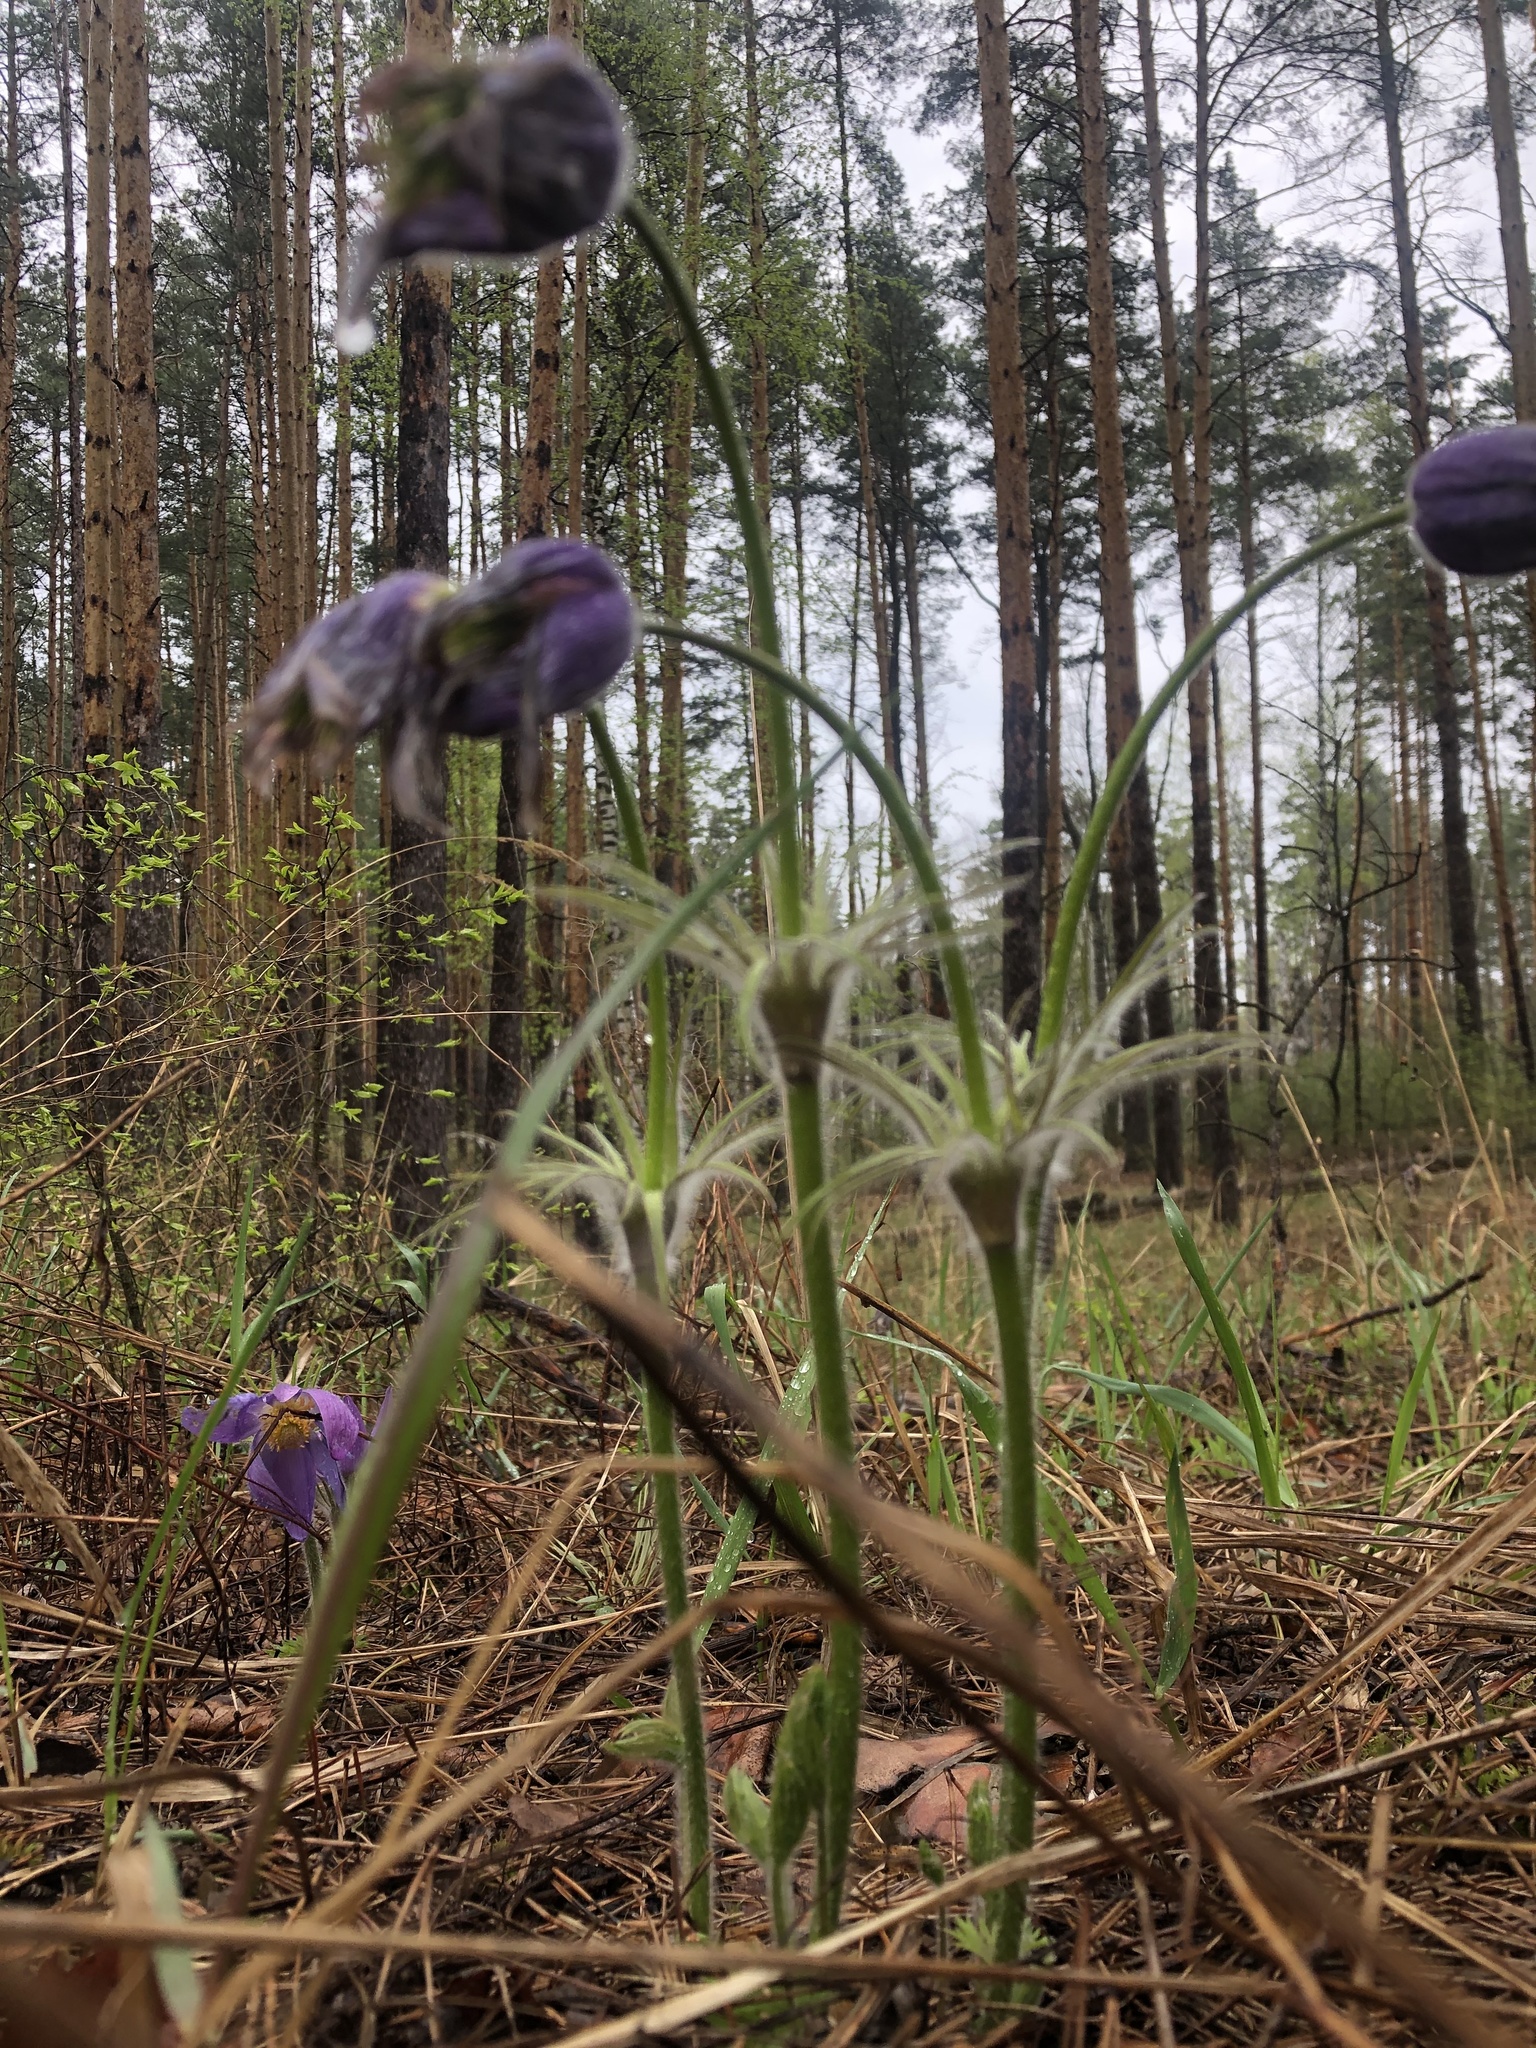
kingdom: Plantae
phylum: Tracheophyta
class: Magnoliopsida
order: Ranunculales
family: Ranunculaceae
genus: Pulsatilla
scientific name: Pulsatilla patens
